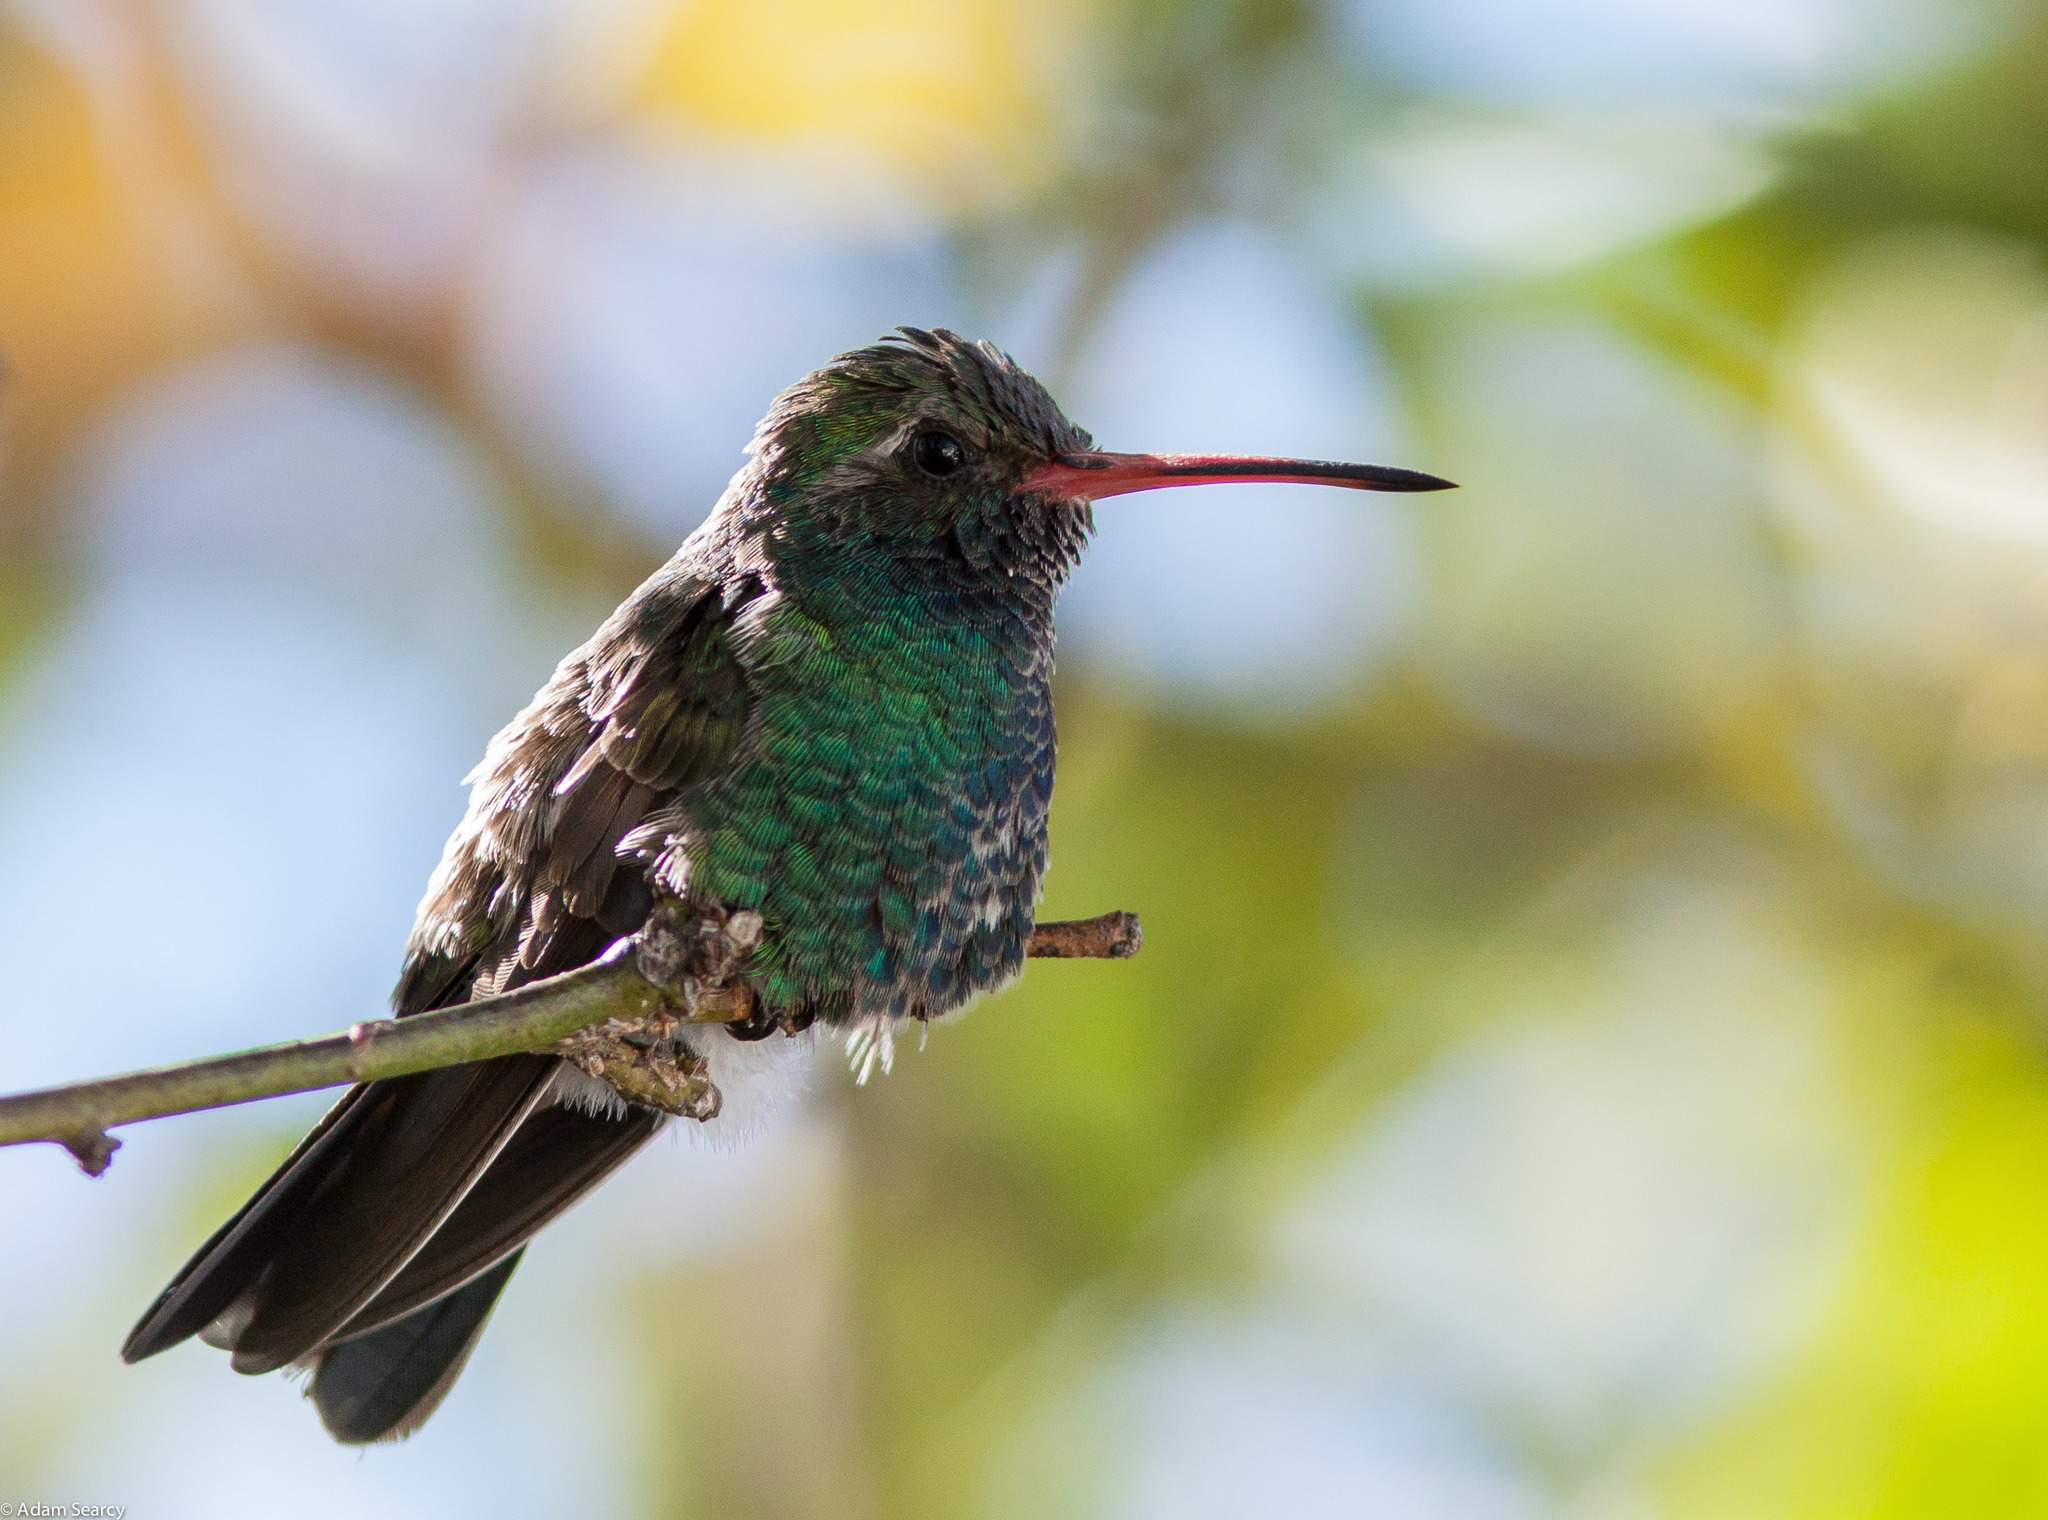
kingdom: Animalia
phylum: Chordata
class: Aves
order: Apodiformes
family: Trochilidae
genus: Cynanthus
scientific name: Cynanthus latirostris
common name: Broad-billed hummingbird
